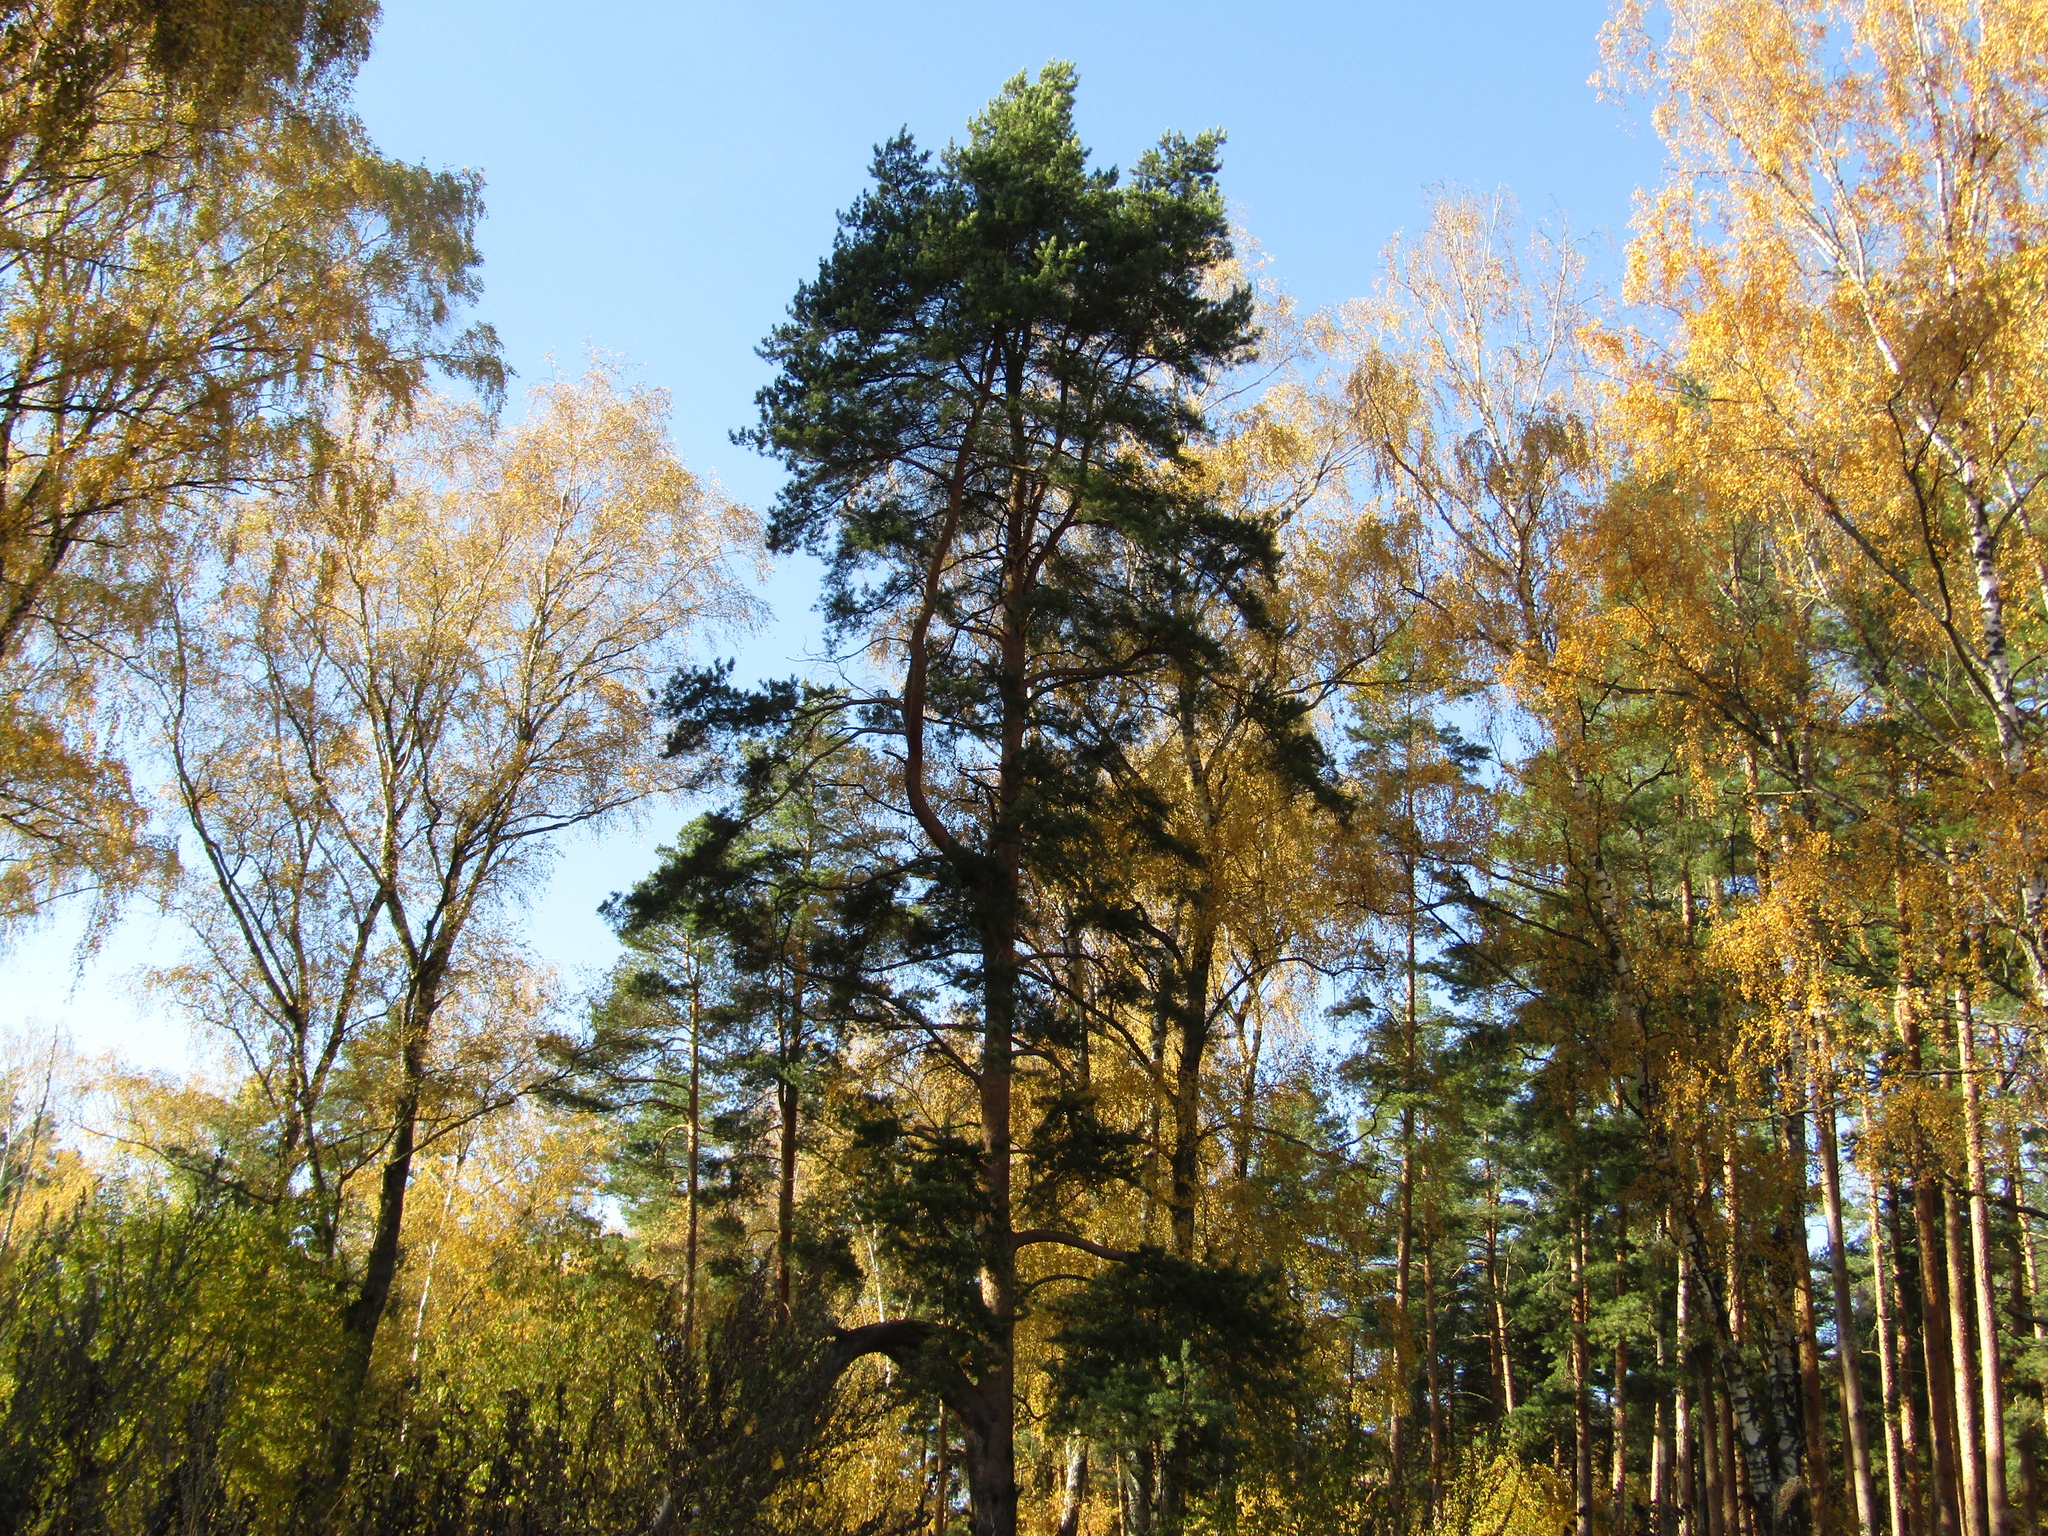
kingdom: Plantae
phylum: Tracheophyta
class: Pinopsida
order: Pinales
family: Pinaceae
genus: Pinus
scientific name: Pinus sylvestris
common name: Scots pine
